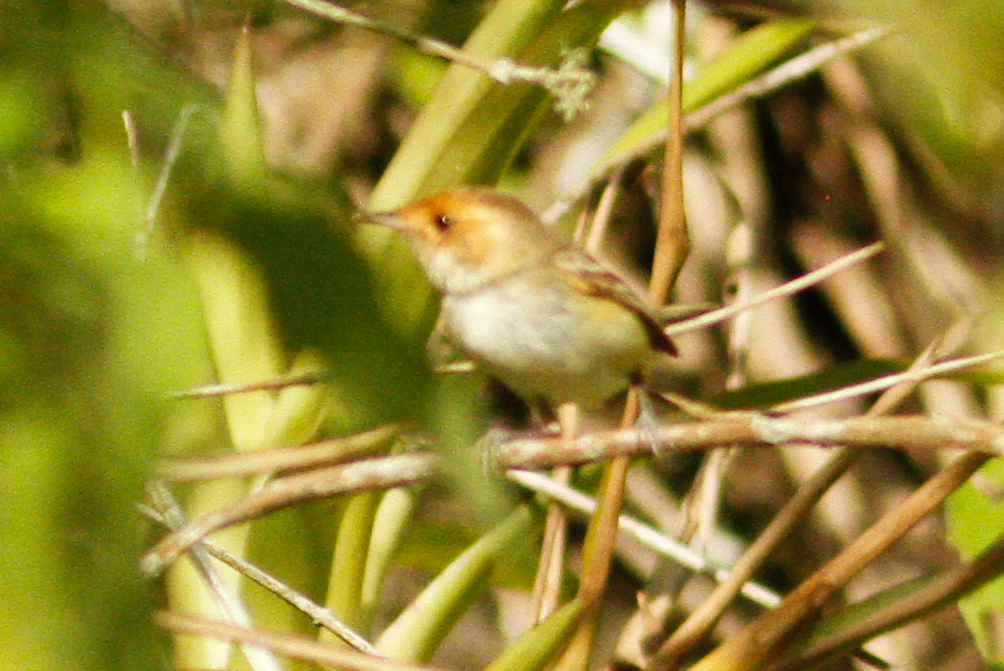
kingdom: Animalia
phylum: Chordata
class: Aves
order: Passeriformes
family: Tyrannidae
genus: Euscarthmus
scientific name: Euscarthmus fulviceps
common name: Fulvous-faced scrub tyrant
